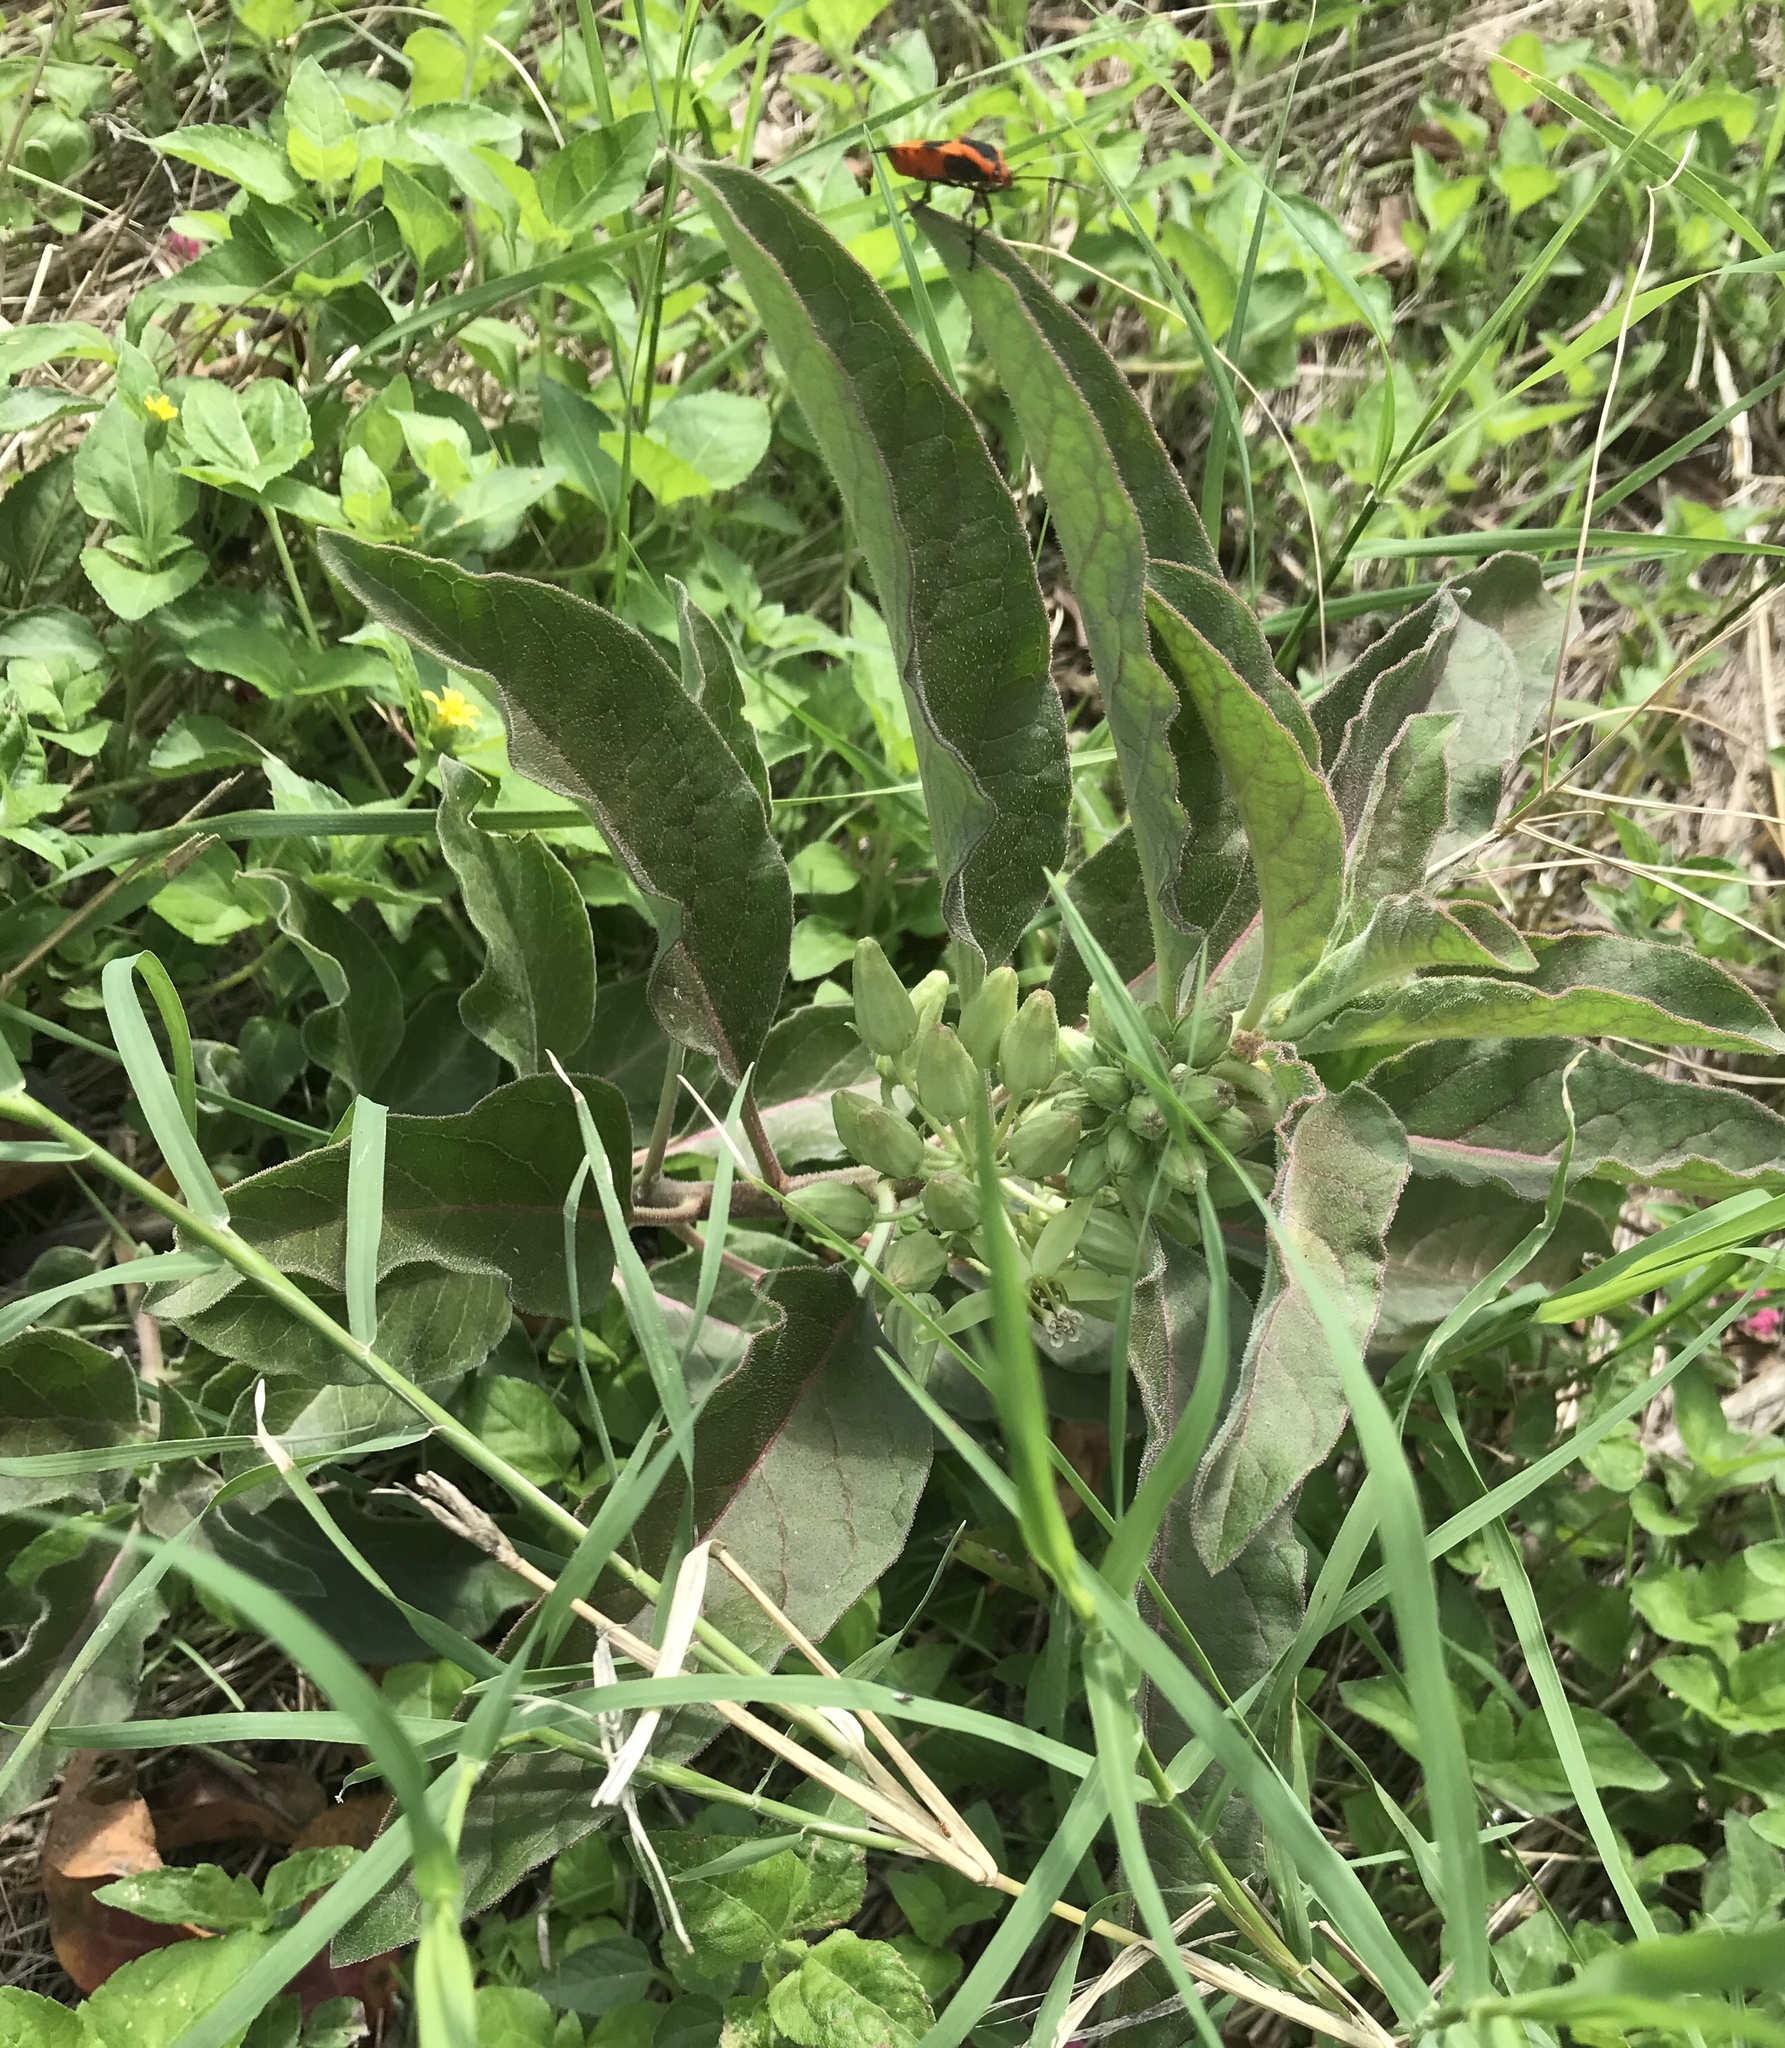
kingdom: Plantae
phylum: Tracheophyta
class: Magnoliopsida
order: Gentianales
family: Apocynaceae
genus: Asclepias
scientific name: Asclepias oenotheroides
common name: Zizotes milkweed
